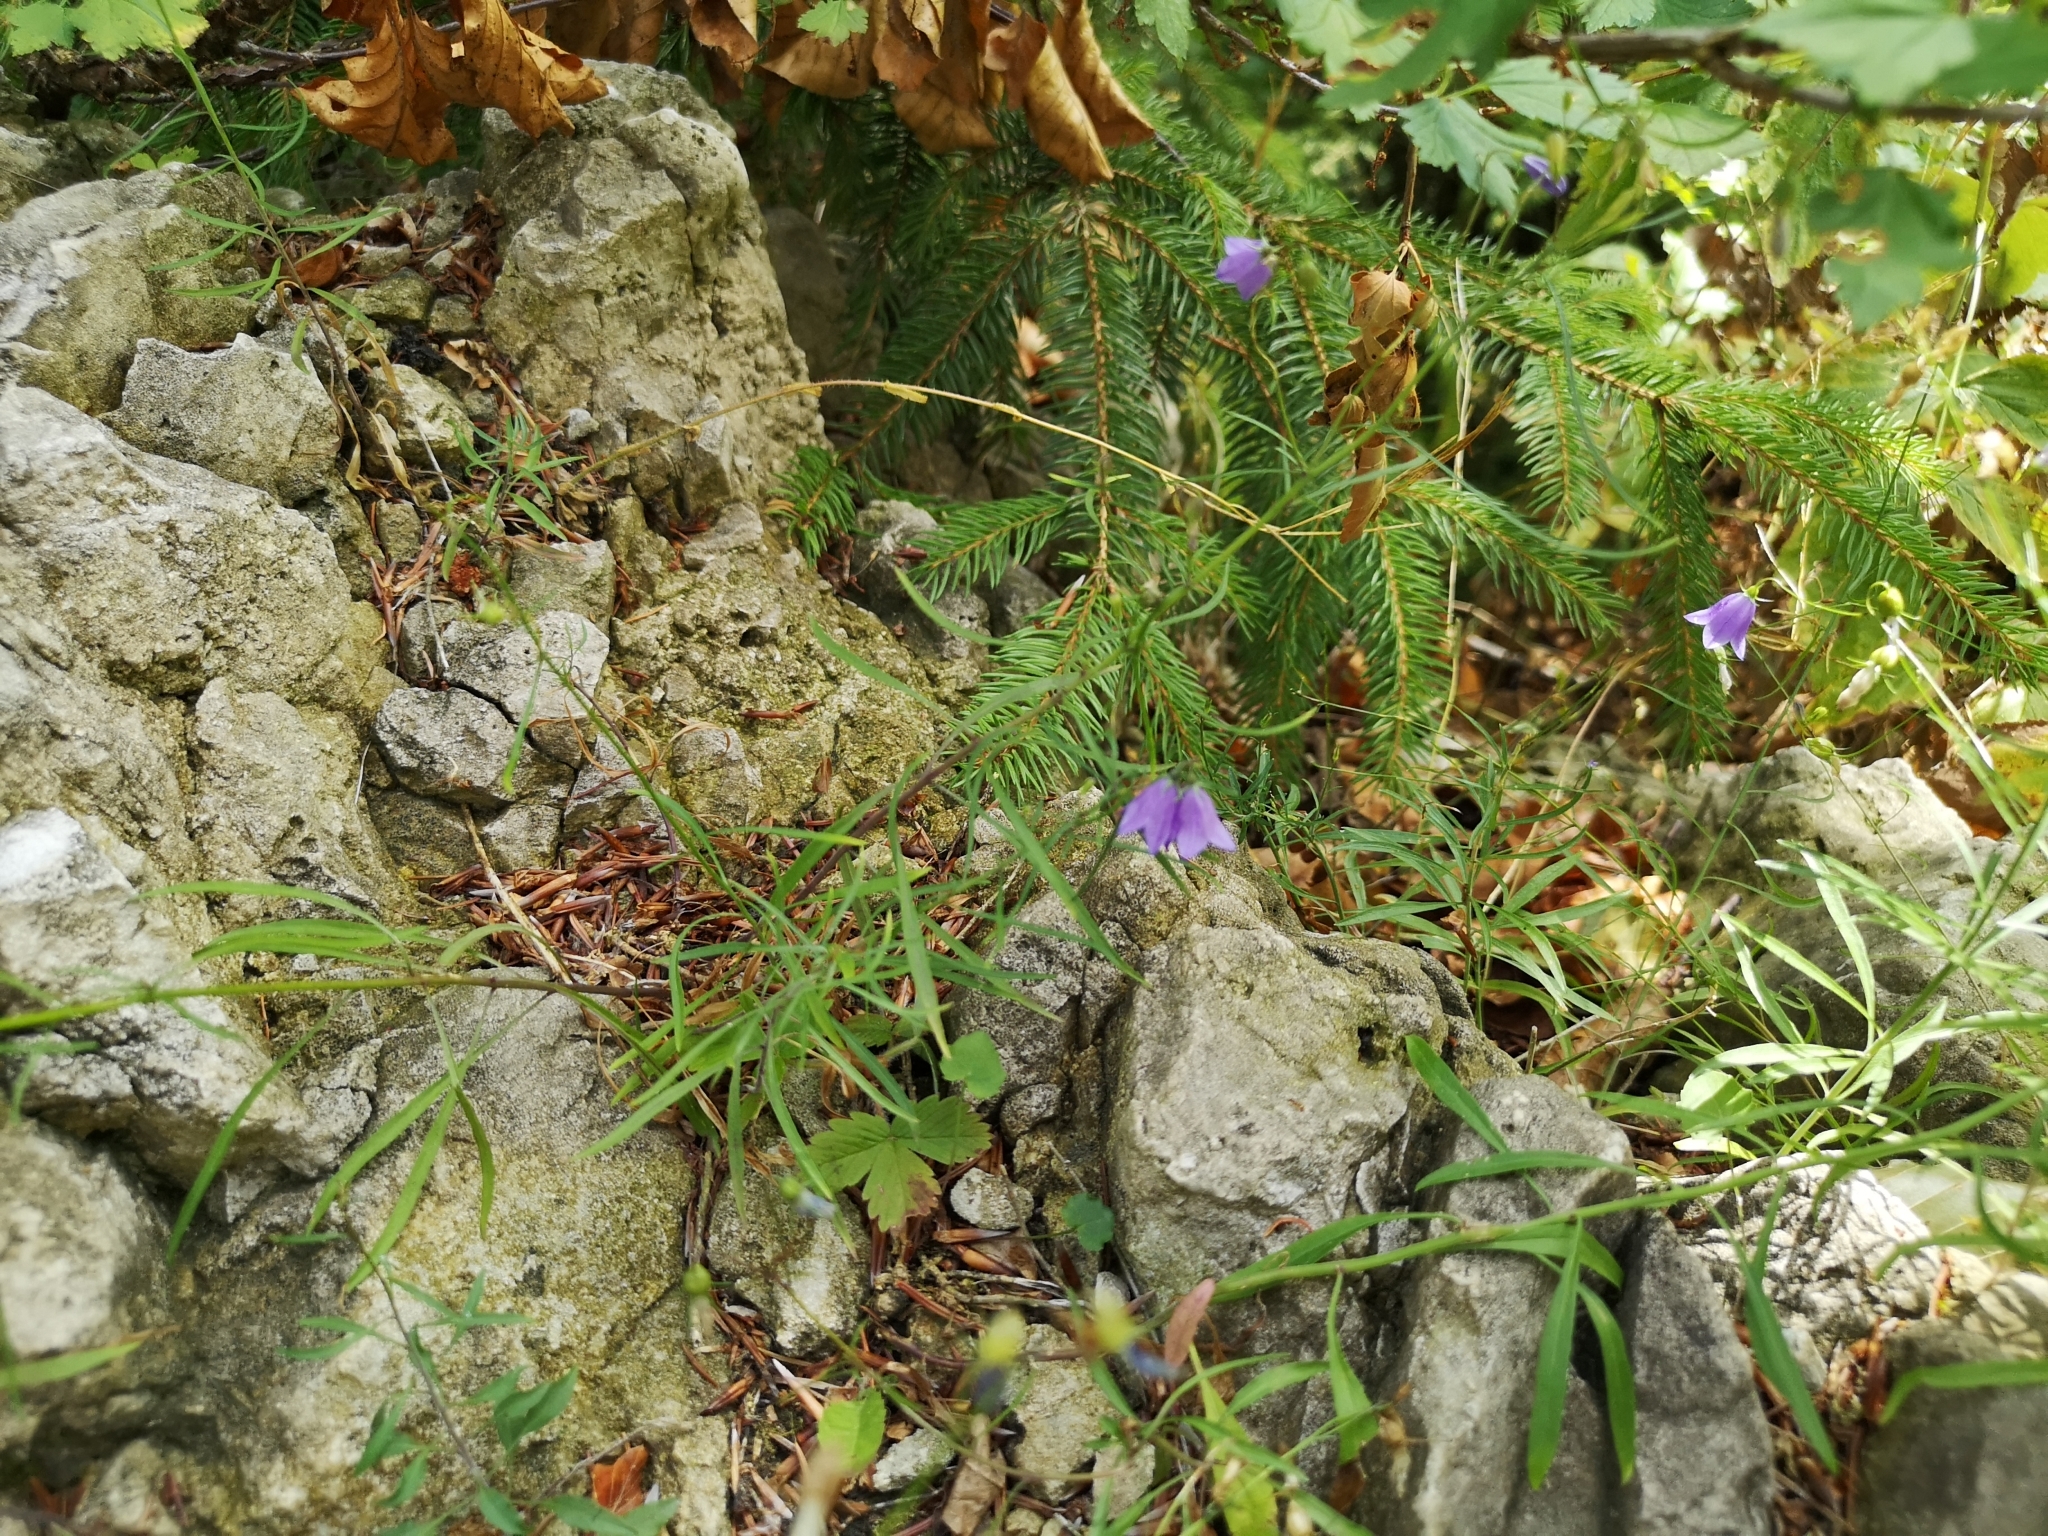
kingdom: Plantae
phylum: Tracheophyta
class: Magnoliopsida
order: Asterales
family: Campanulaceae
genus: Campanula
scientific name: Campanula rotundifolia
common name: Harebell
